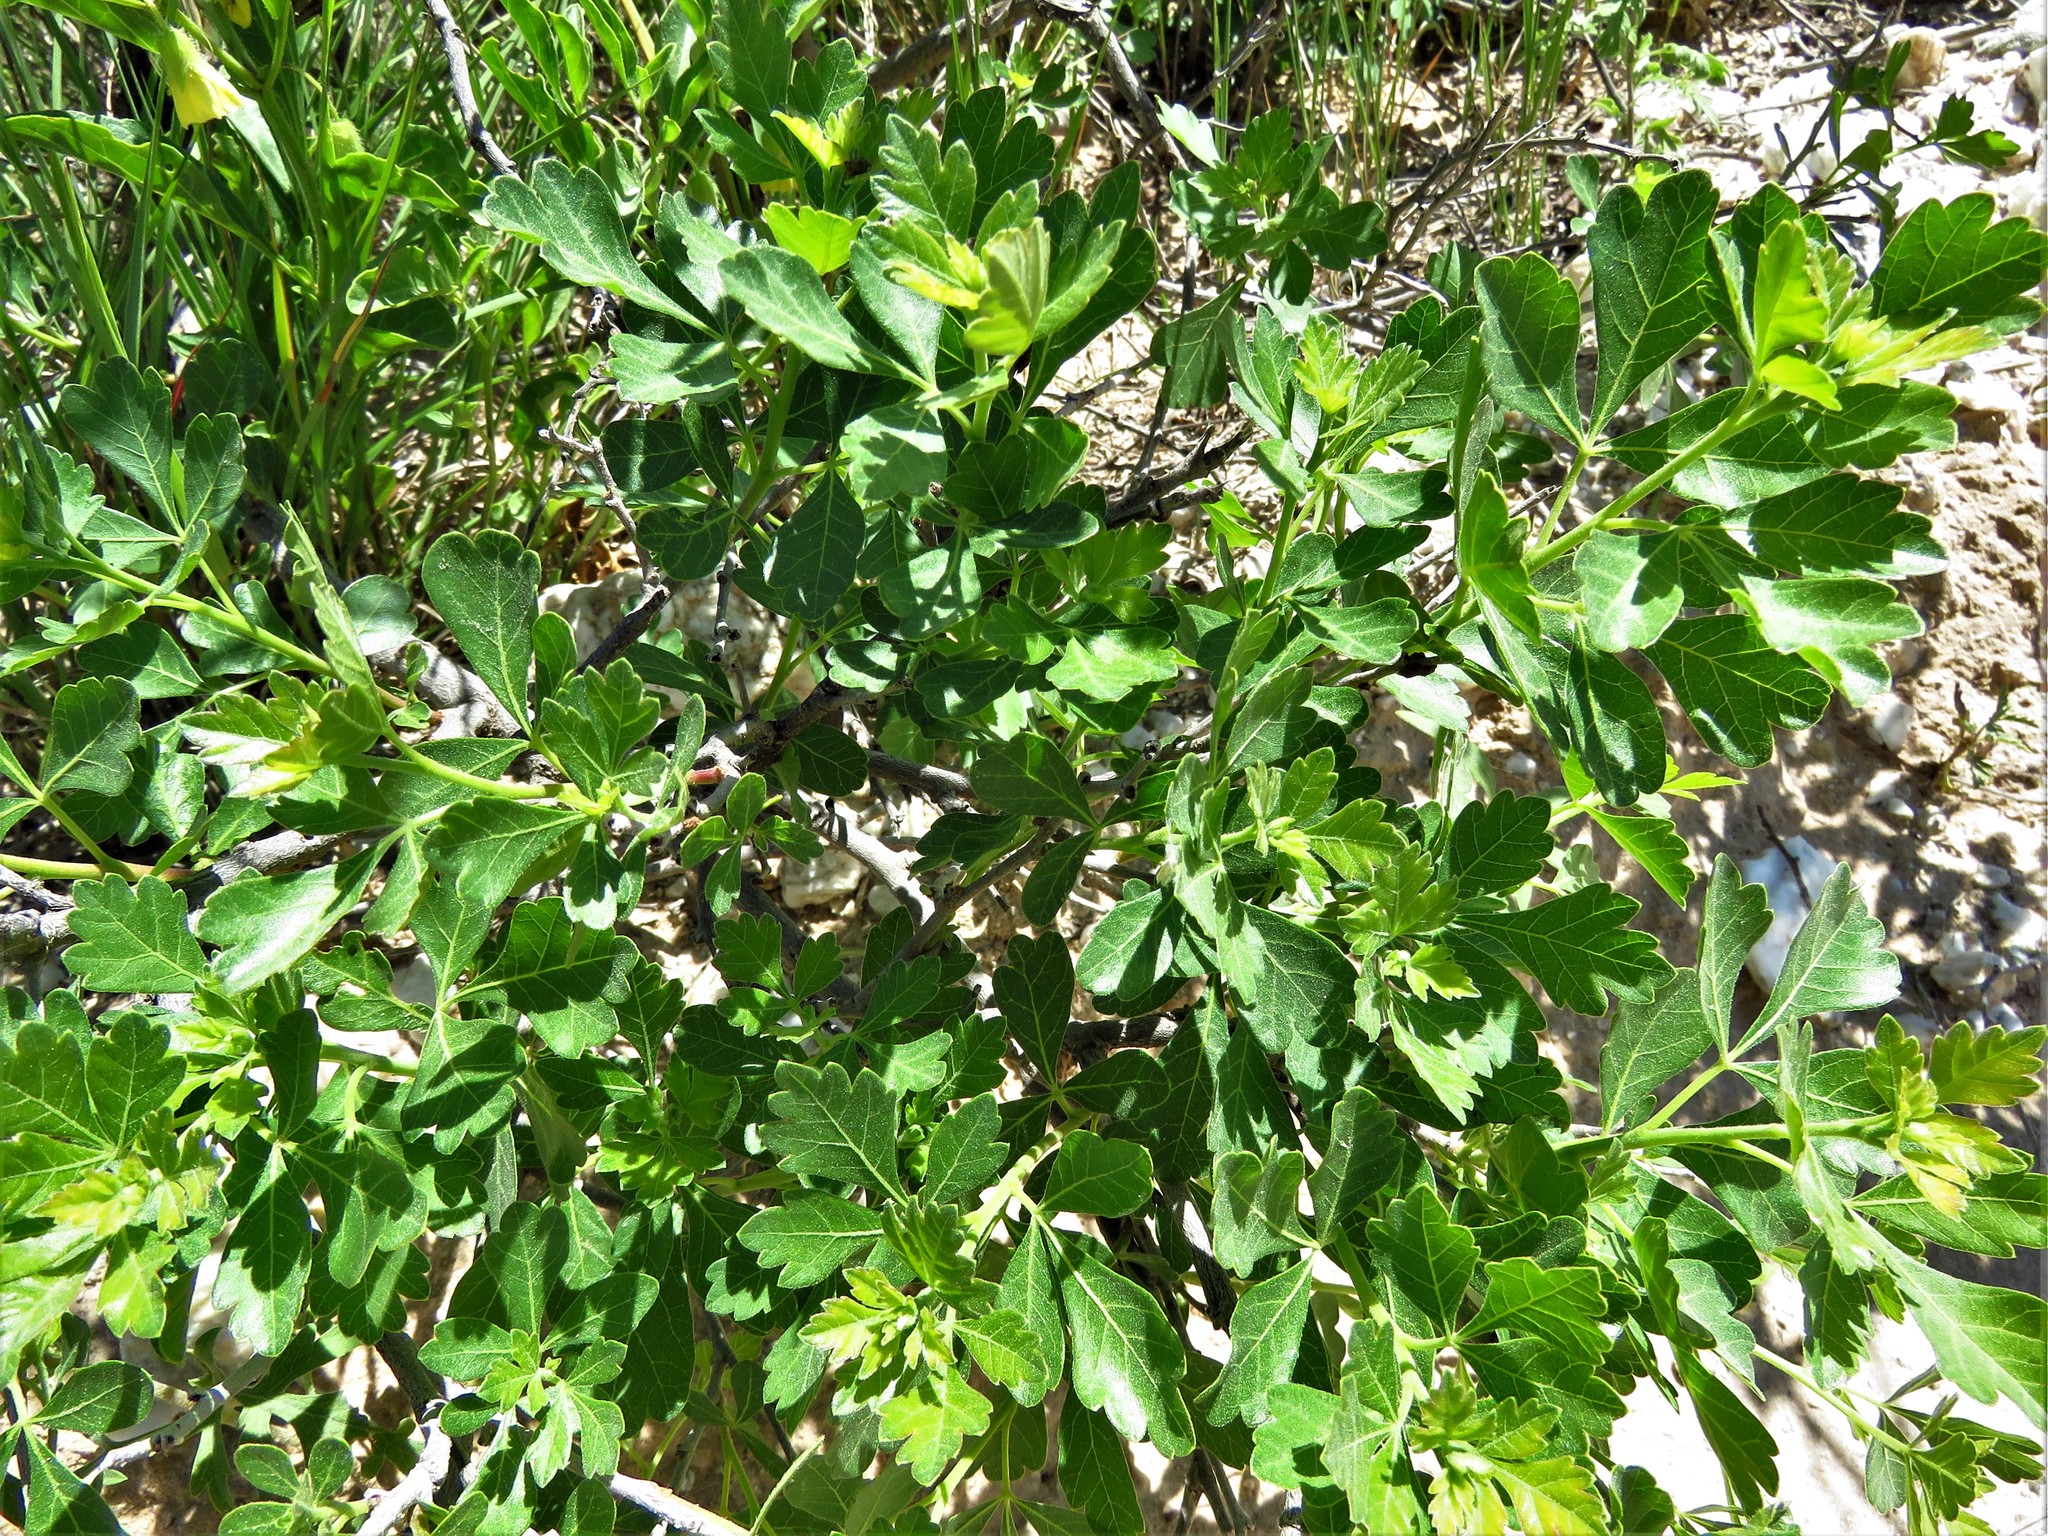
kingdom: Plantae
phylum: Tracheophyta
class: Magnoliopsida
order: Sapindales
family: Anacardiaceae
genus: Rhus
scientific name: Rhus aromatica
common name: Aromatic sumac
